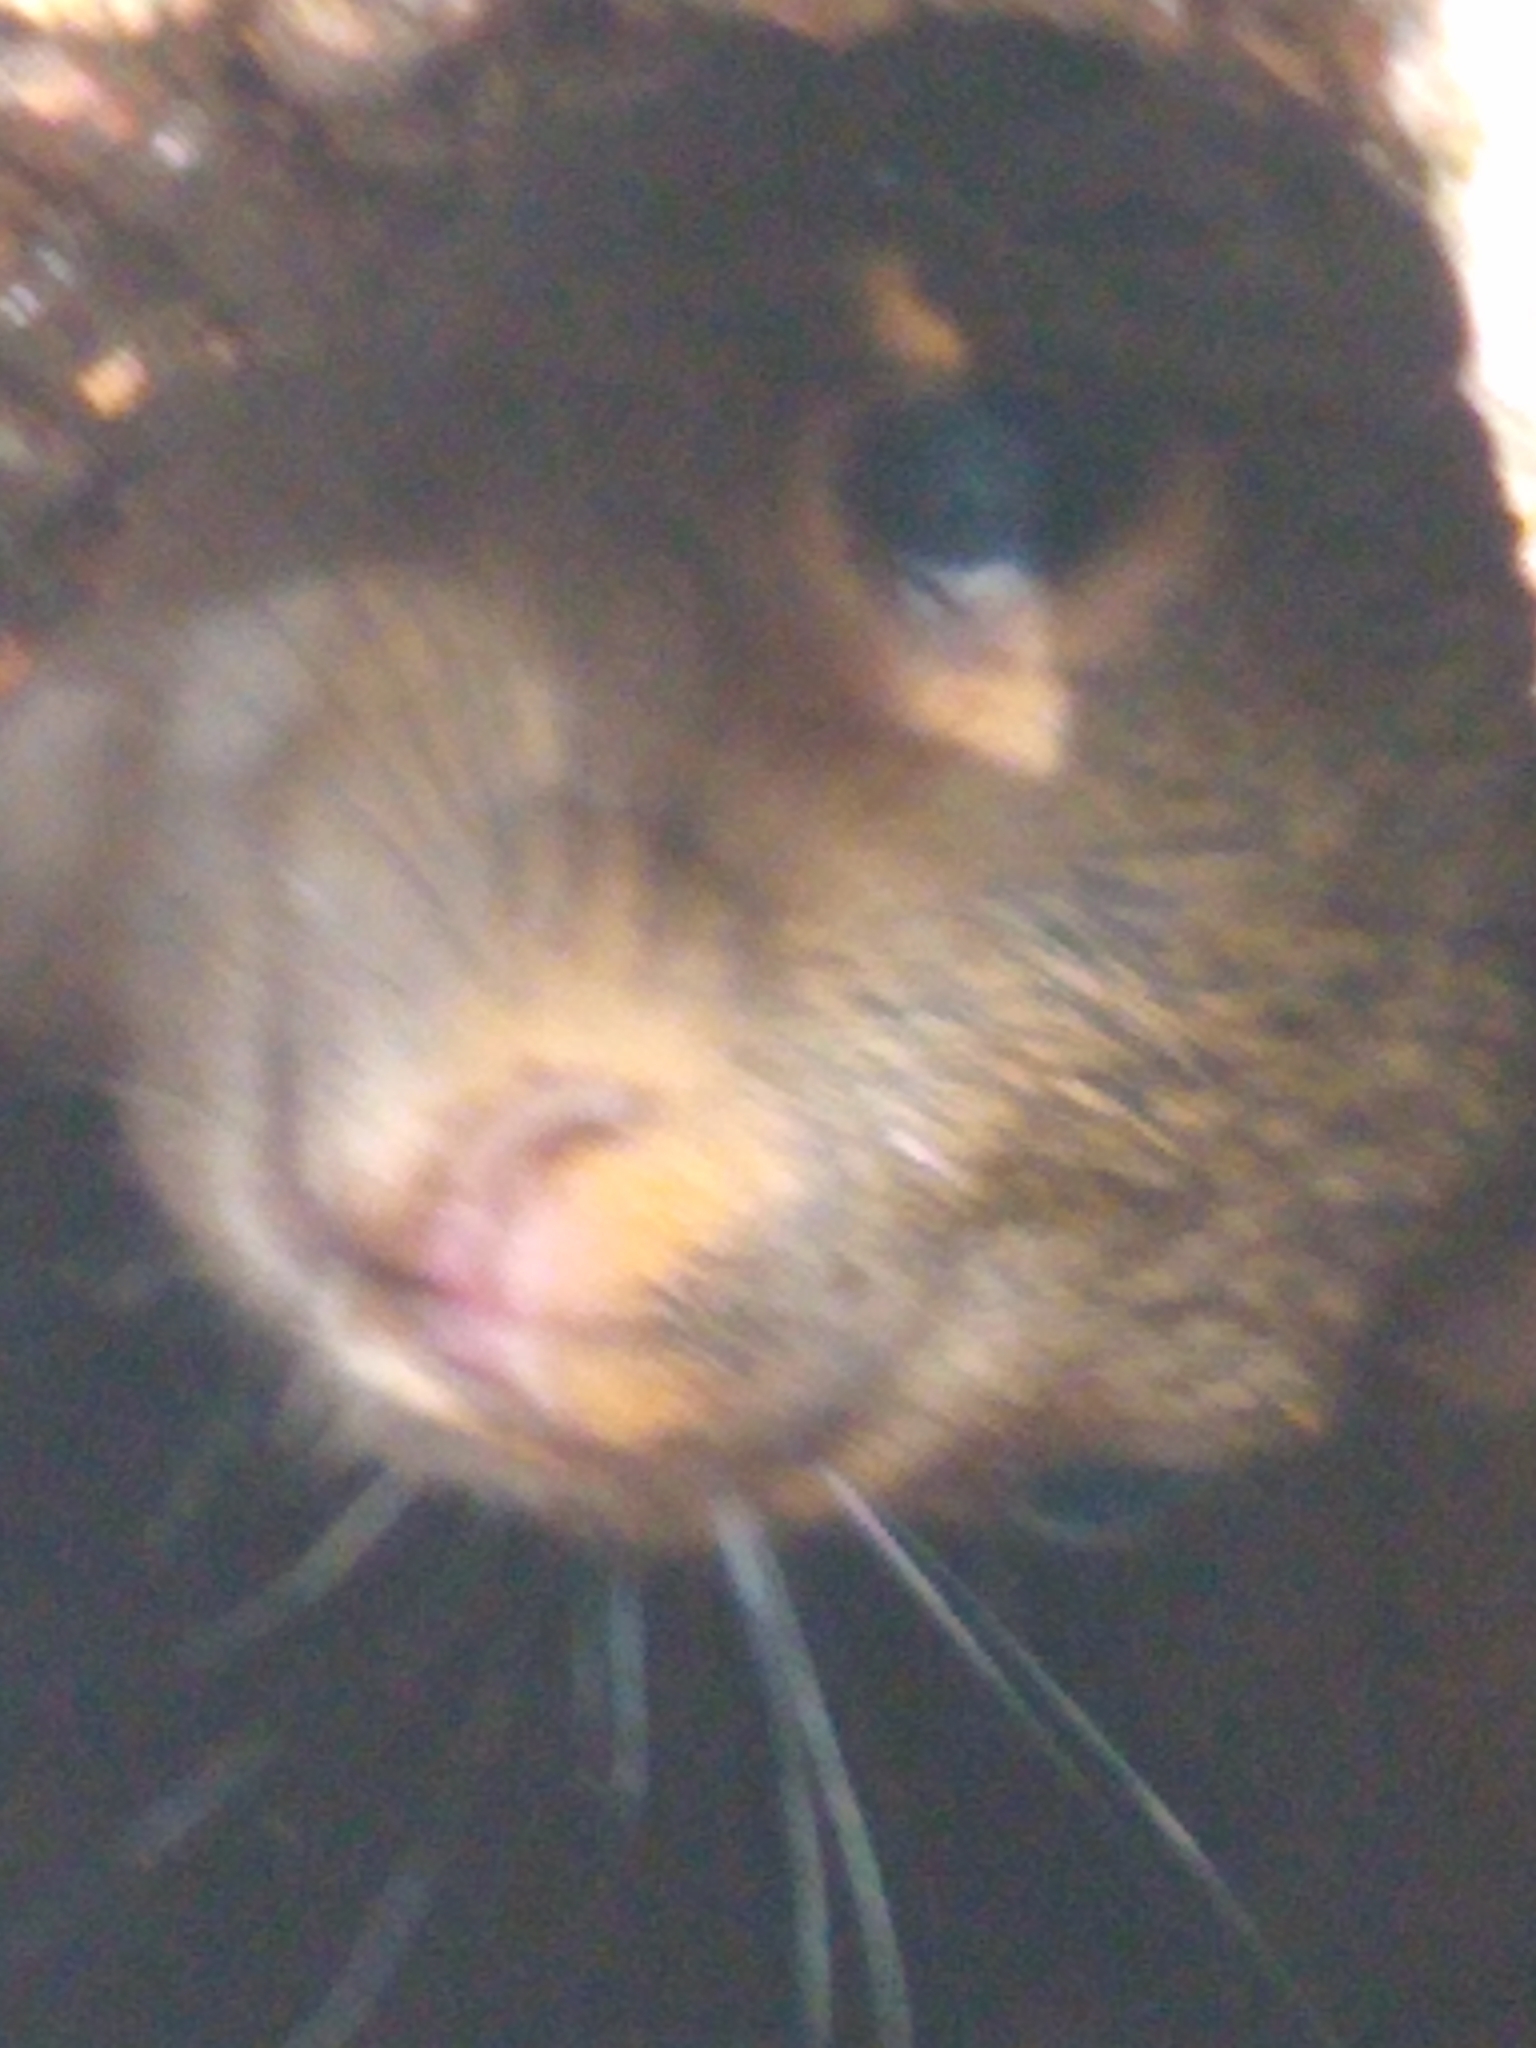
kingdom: Animalia
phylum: Chordata
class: Mammalia
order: Rodentia
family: Sciuridae
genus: Sciurus
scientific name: Sciurus carolinensis
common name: Eastern gray squirrel
